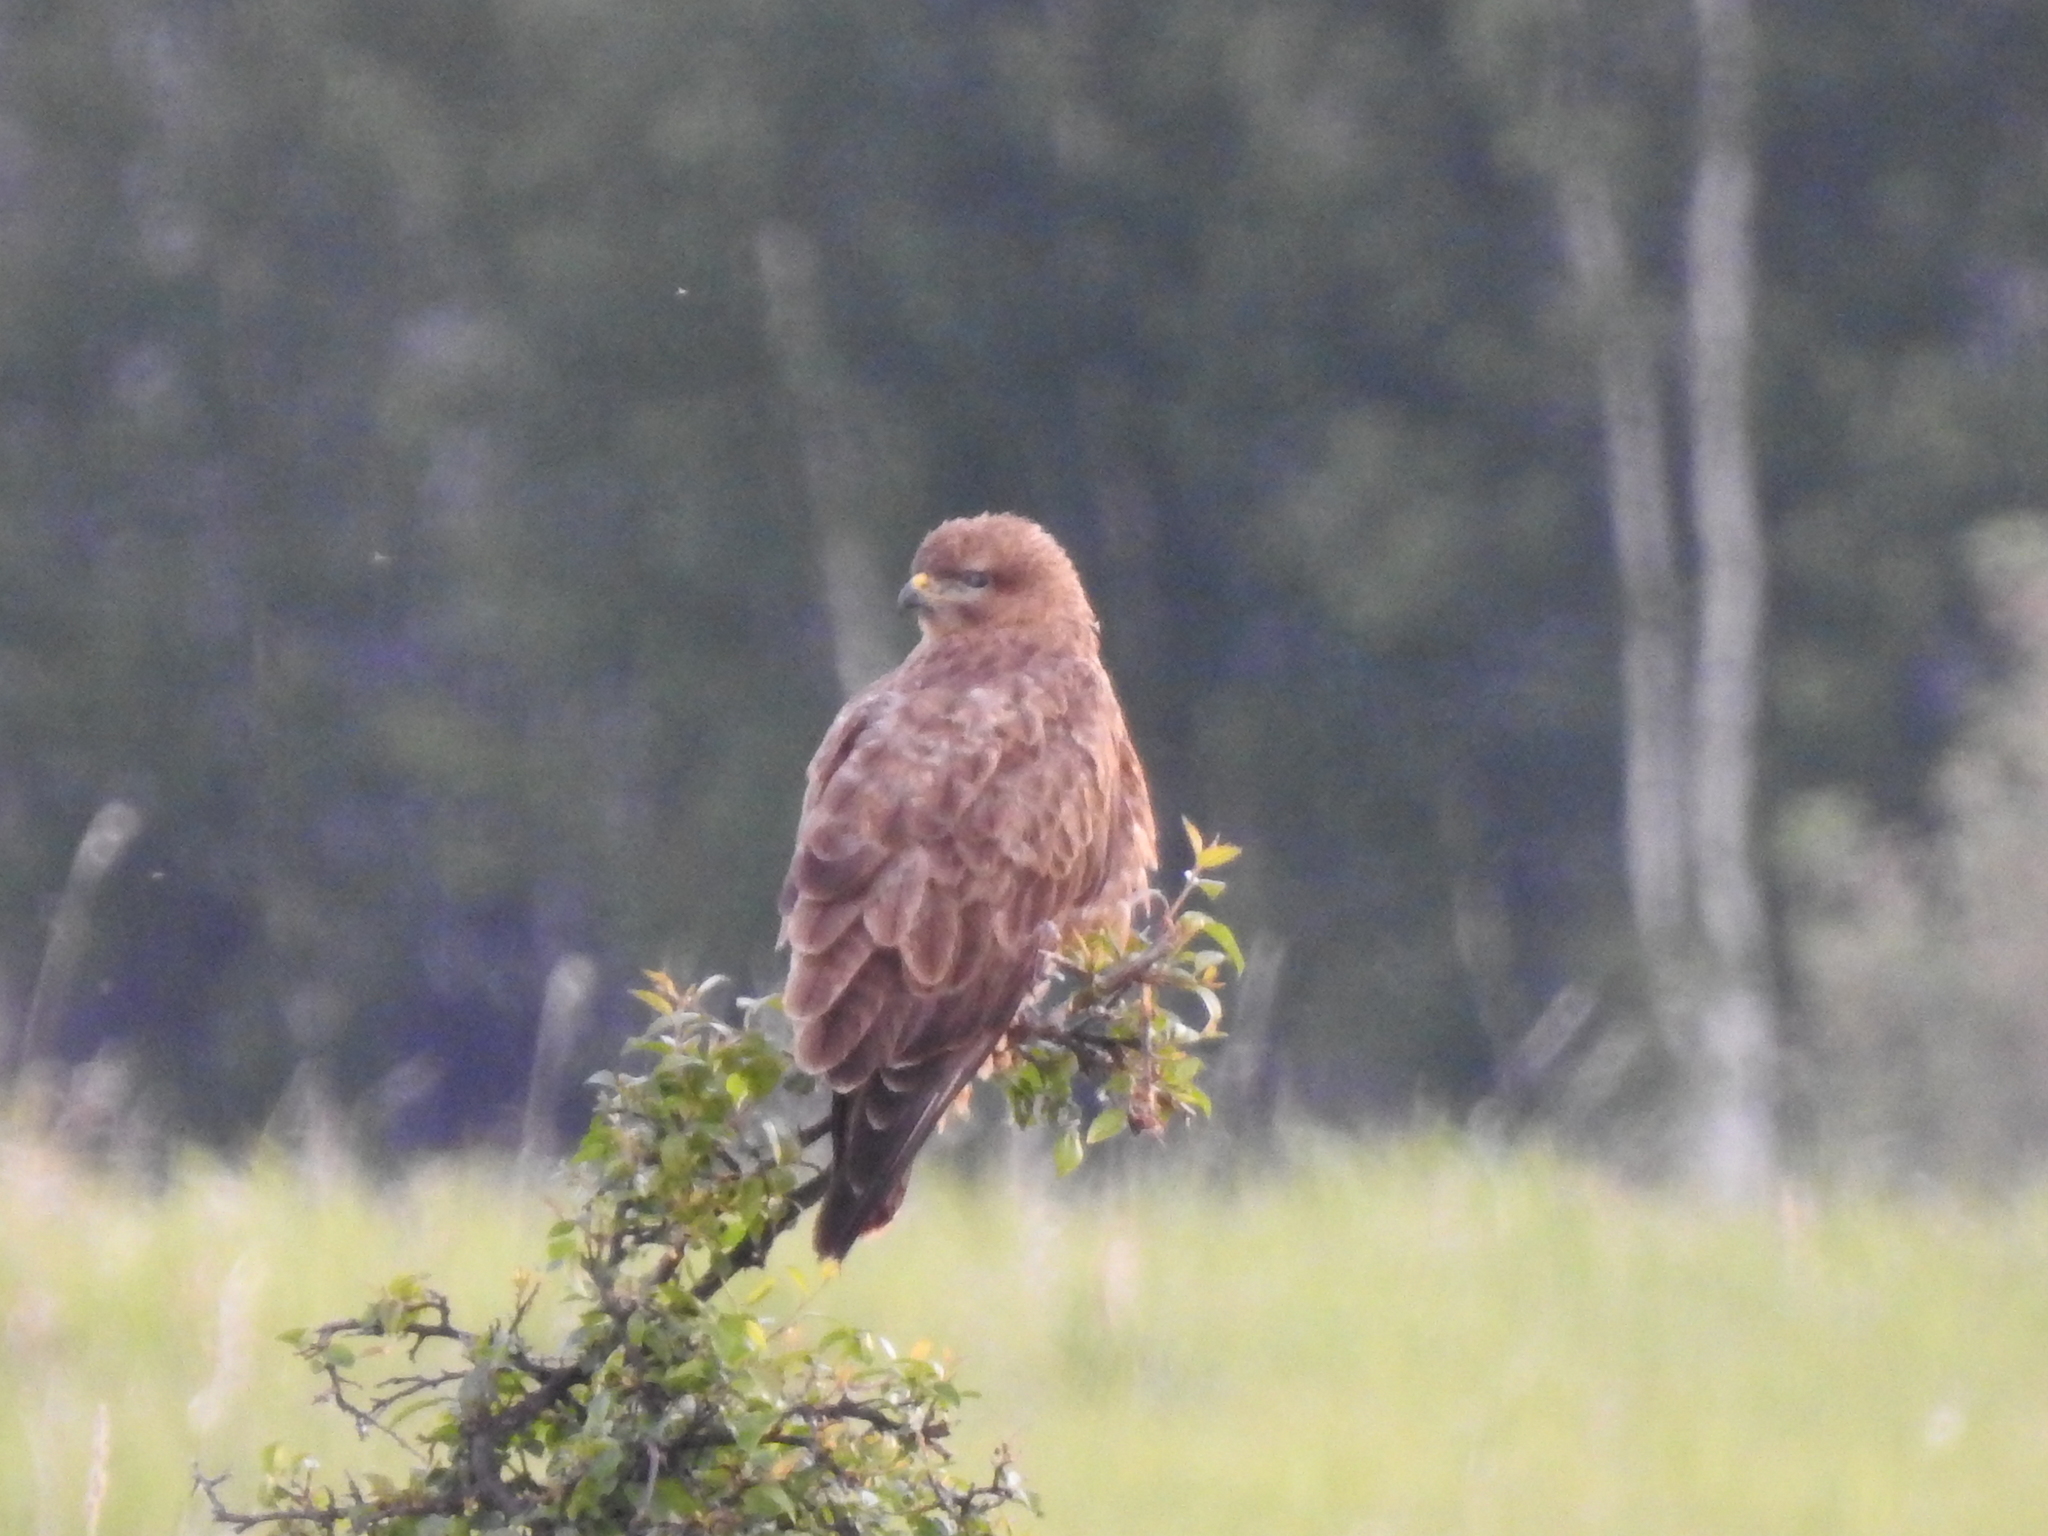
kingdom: Animalia
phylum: Chordata
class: Aves
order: Accipitriformes
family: Accipitridae
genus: Buteo
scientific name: Buteo buteo
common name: Common buzzard
